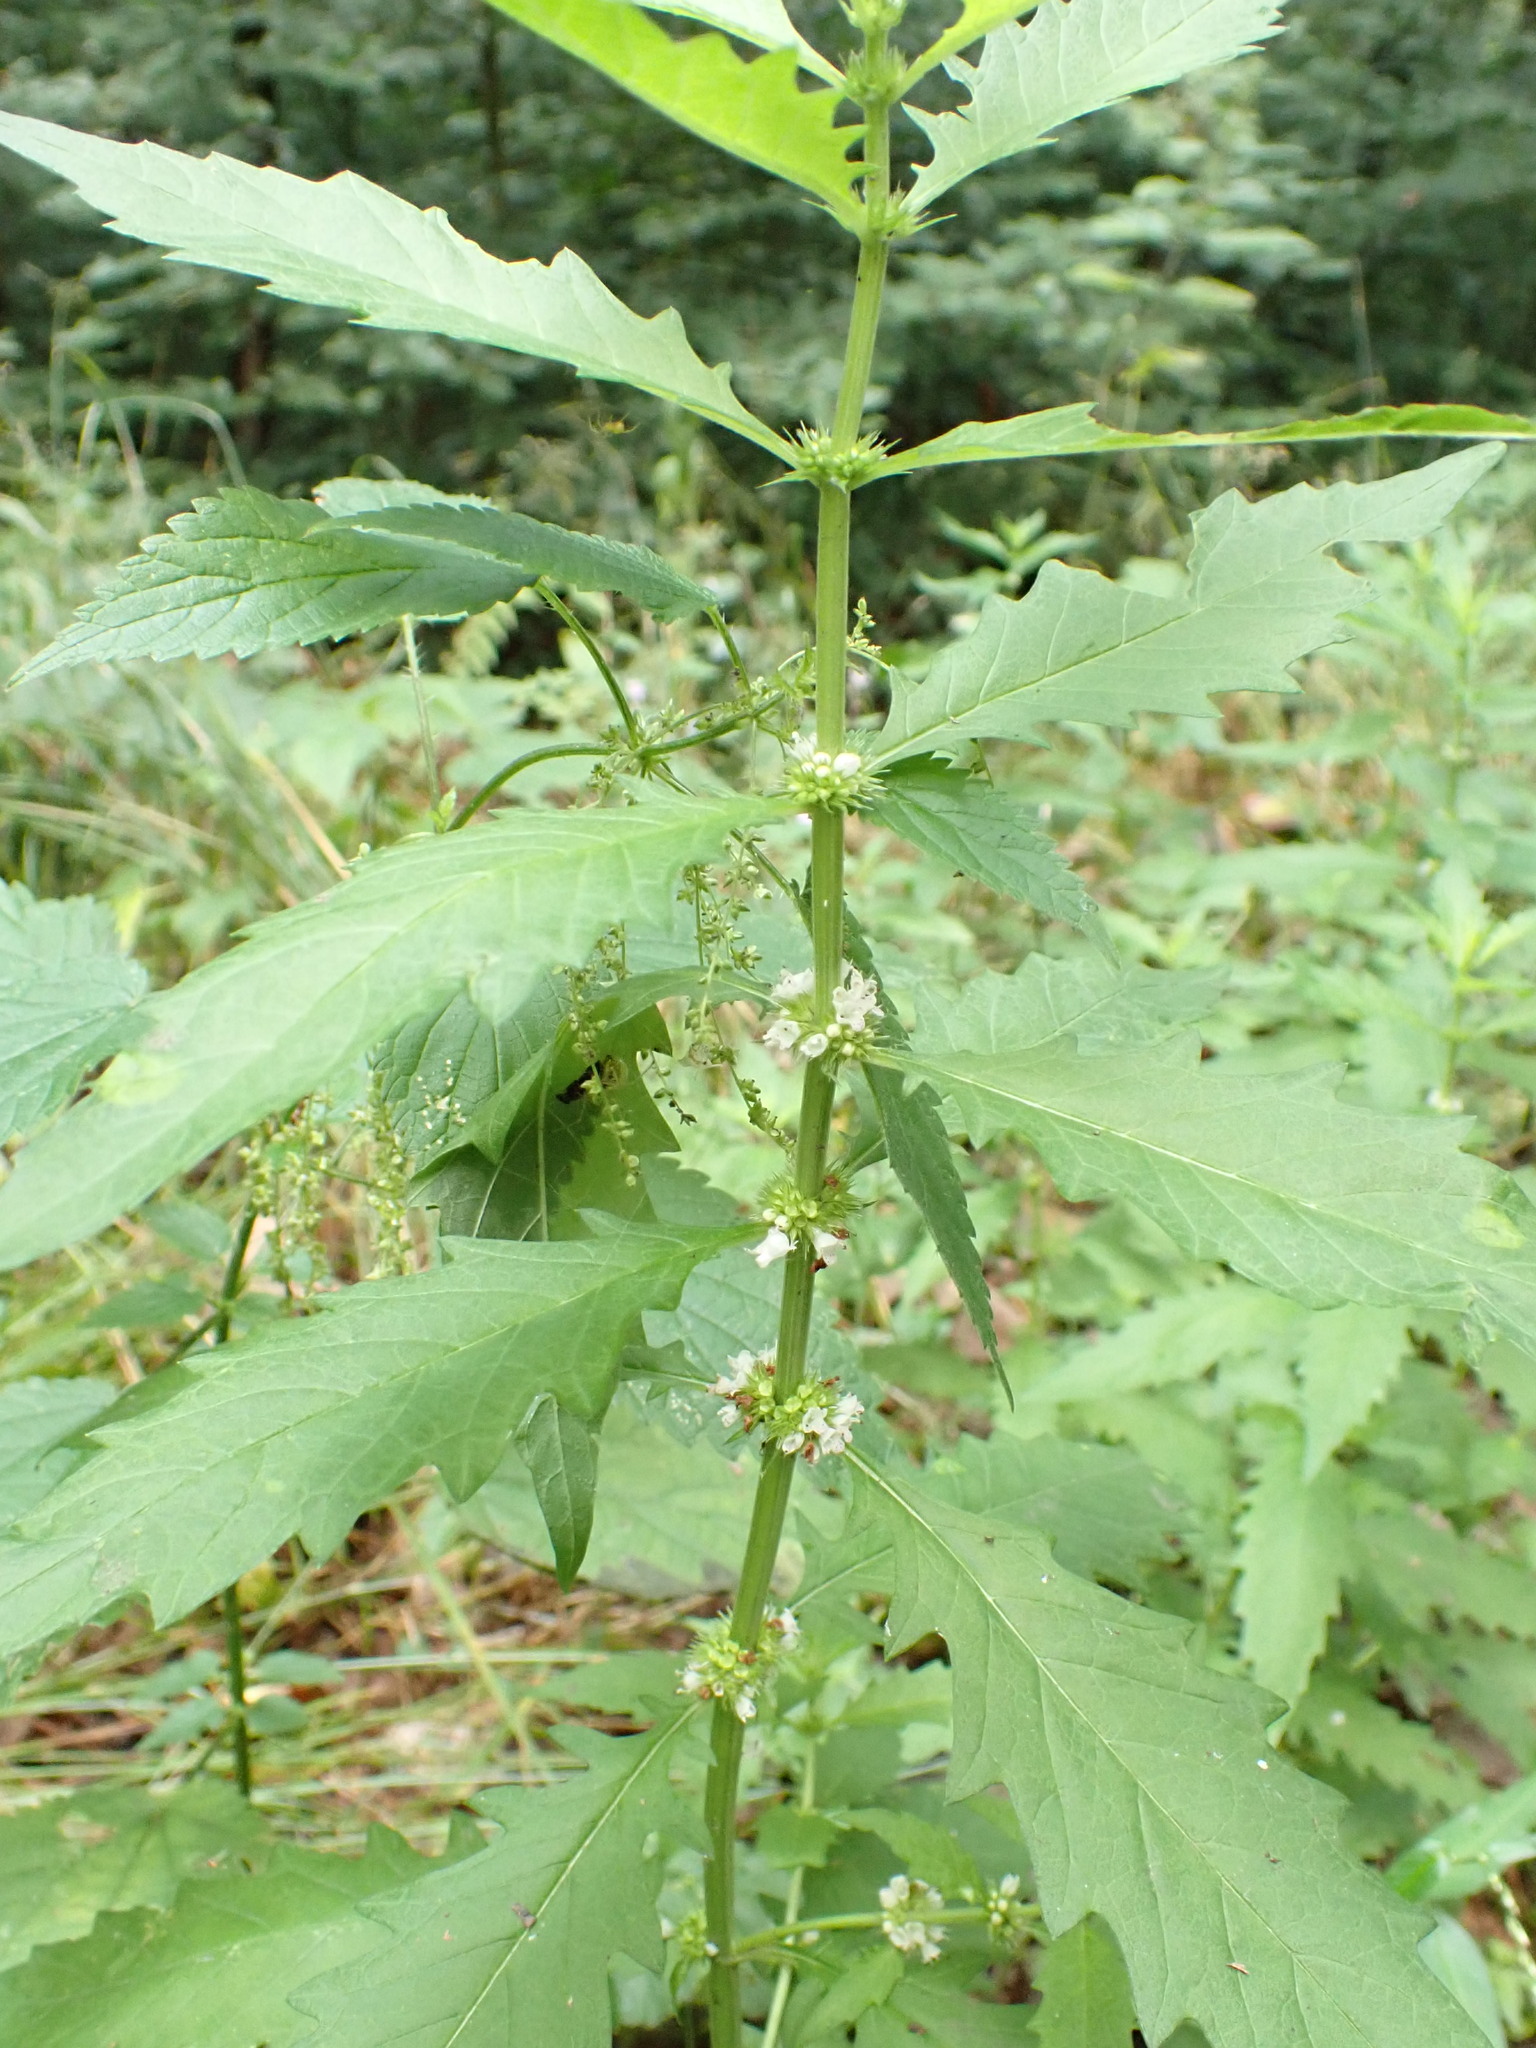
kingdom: Plantae
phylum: Tracheophyta
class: Magnoliopsida
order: Lamiales
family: Lamiaceae
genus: Lycopus
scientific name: Lycopus europaeus
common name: European bugleweed
